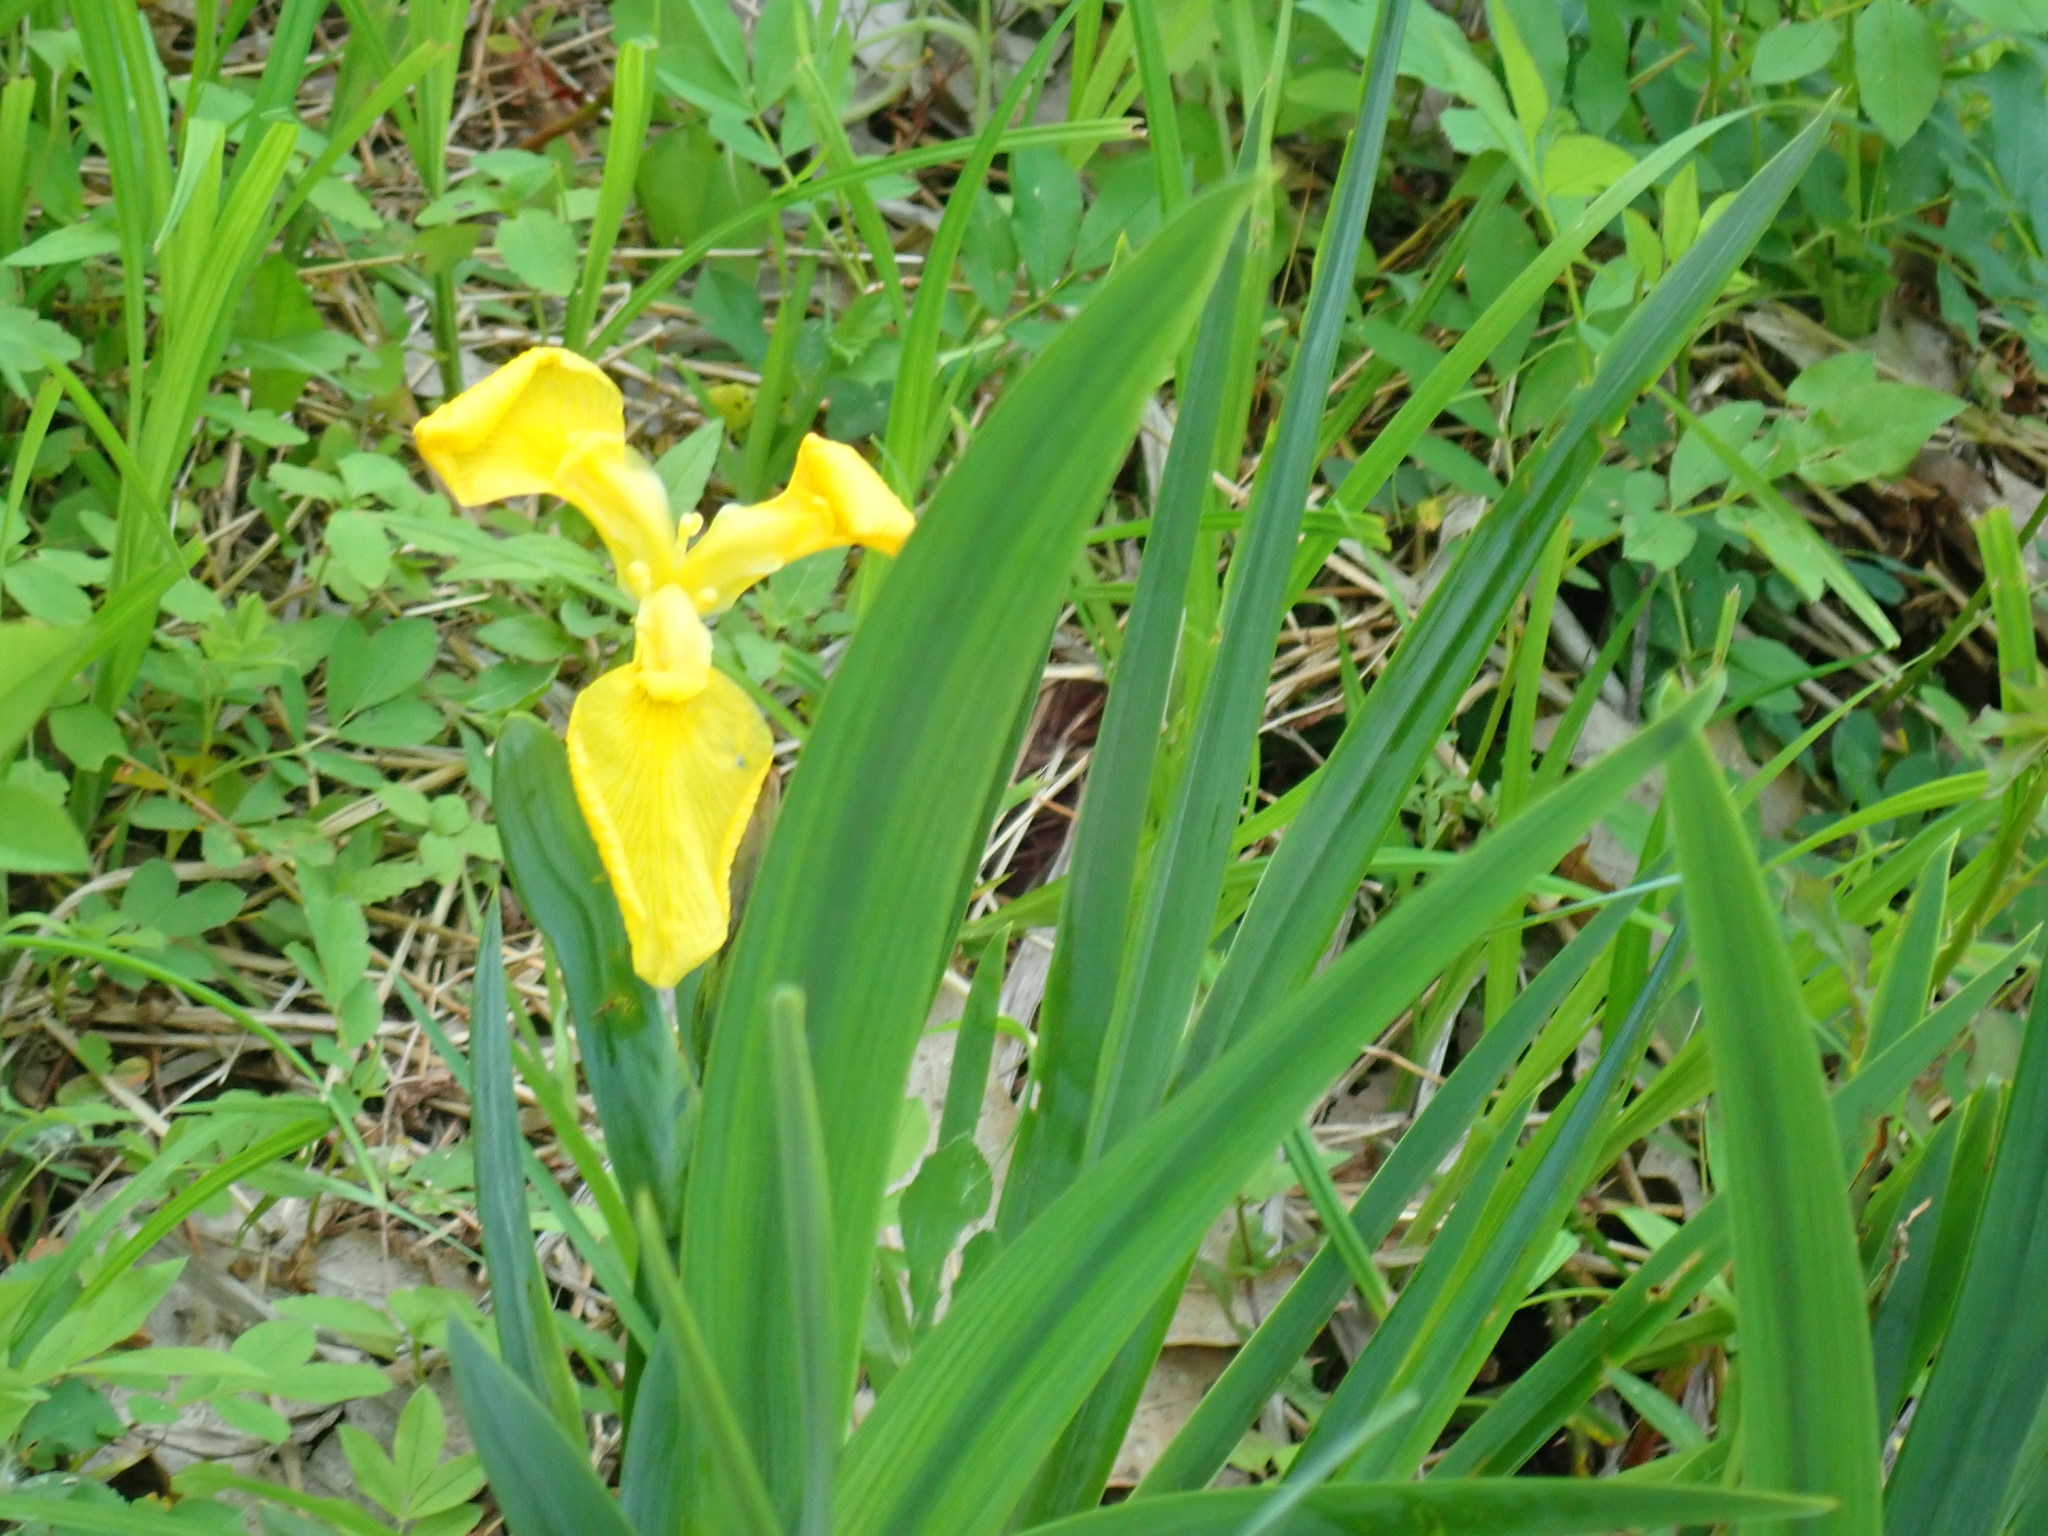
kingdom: Plantae
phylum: Tracheophyta
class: Liliopsida
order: Asparagales
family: Iridaceae
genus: Iris
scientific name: Iris pseudacorus
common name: Yellow flag
